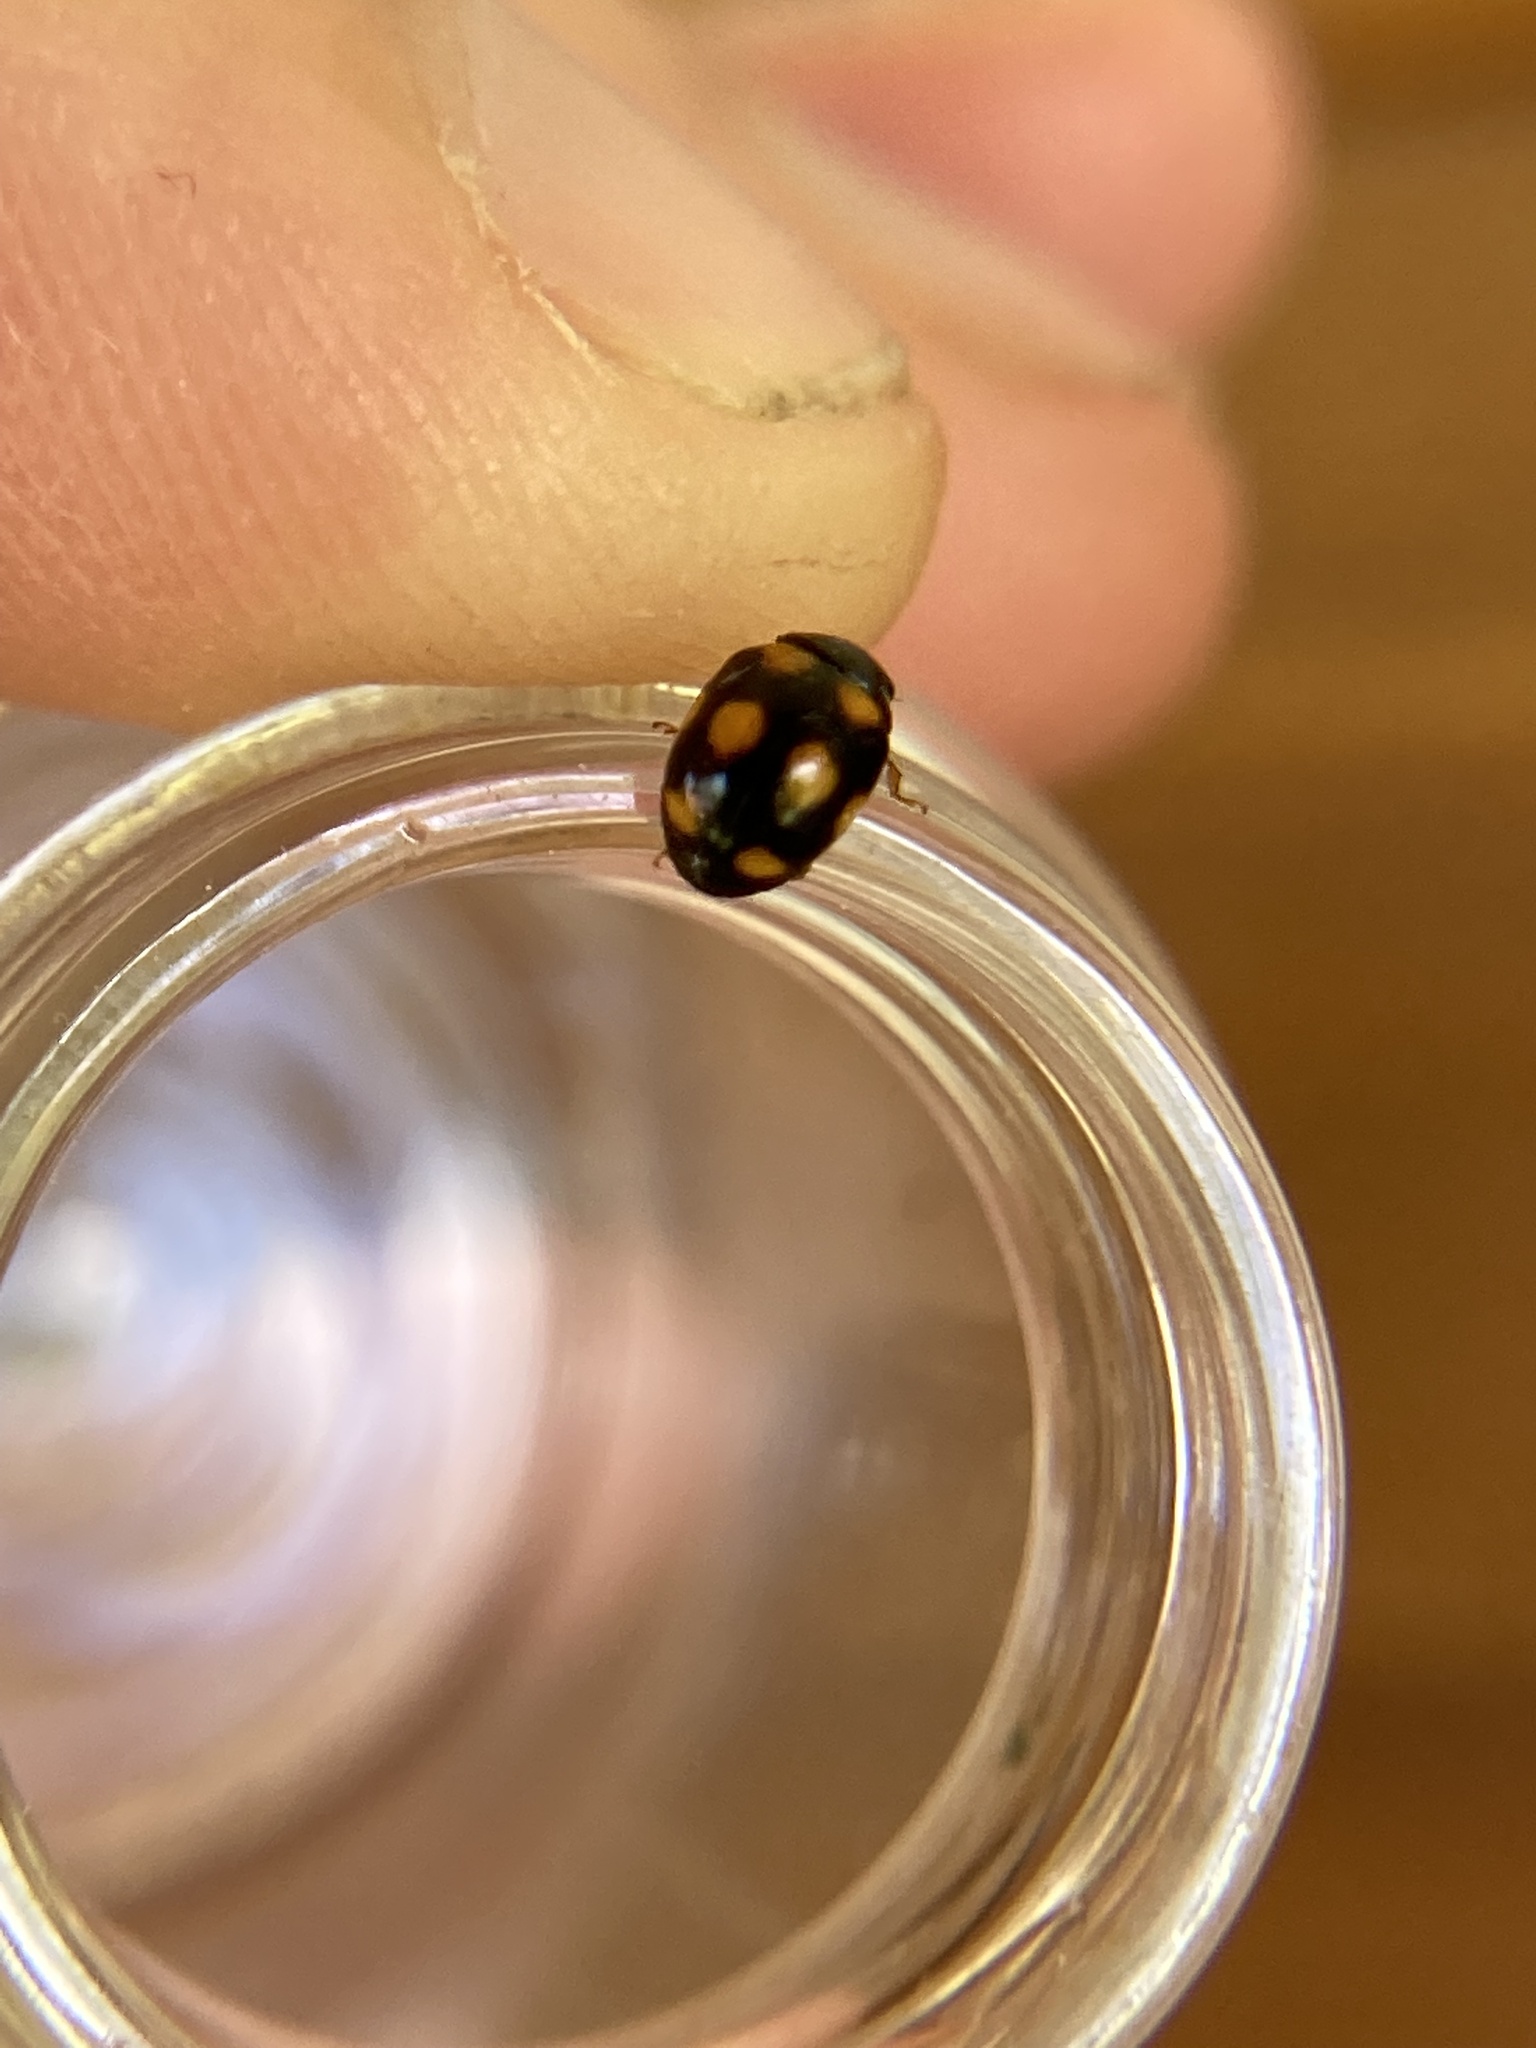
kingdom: Animalia
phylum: Arthropoda
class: Insecta
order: Coleoptera
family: Coccinellidae
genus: Brachiacantha
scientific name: Brachiacantha ursina
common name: Ursine spurleg lady beetle
